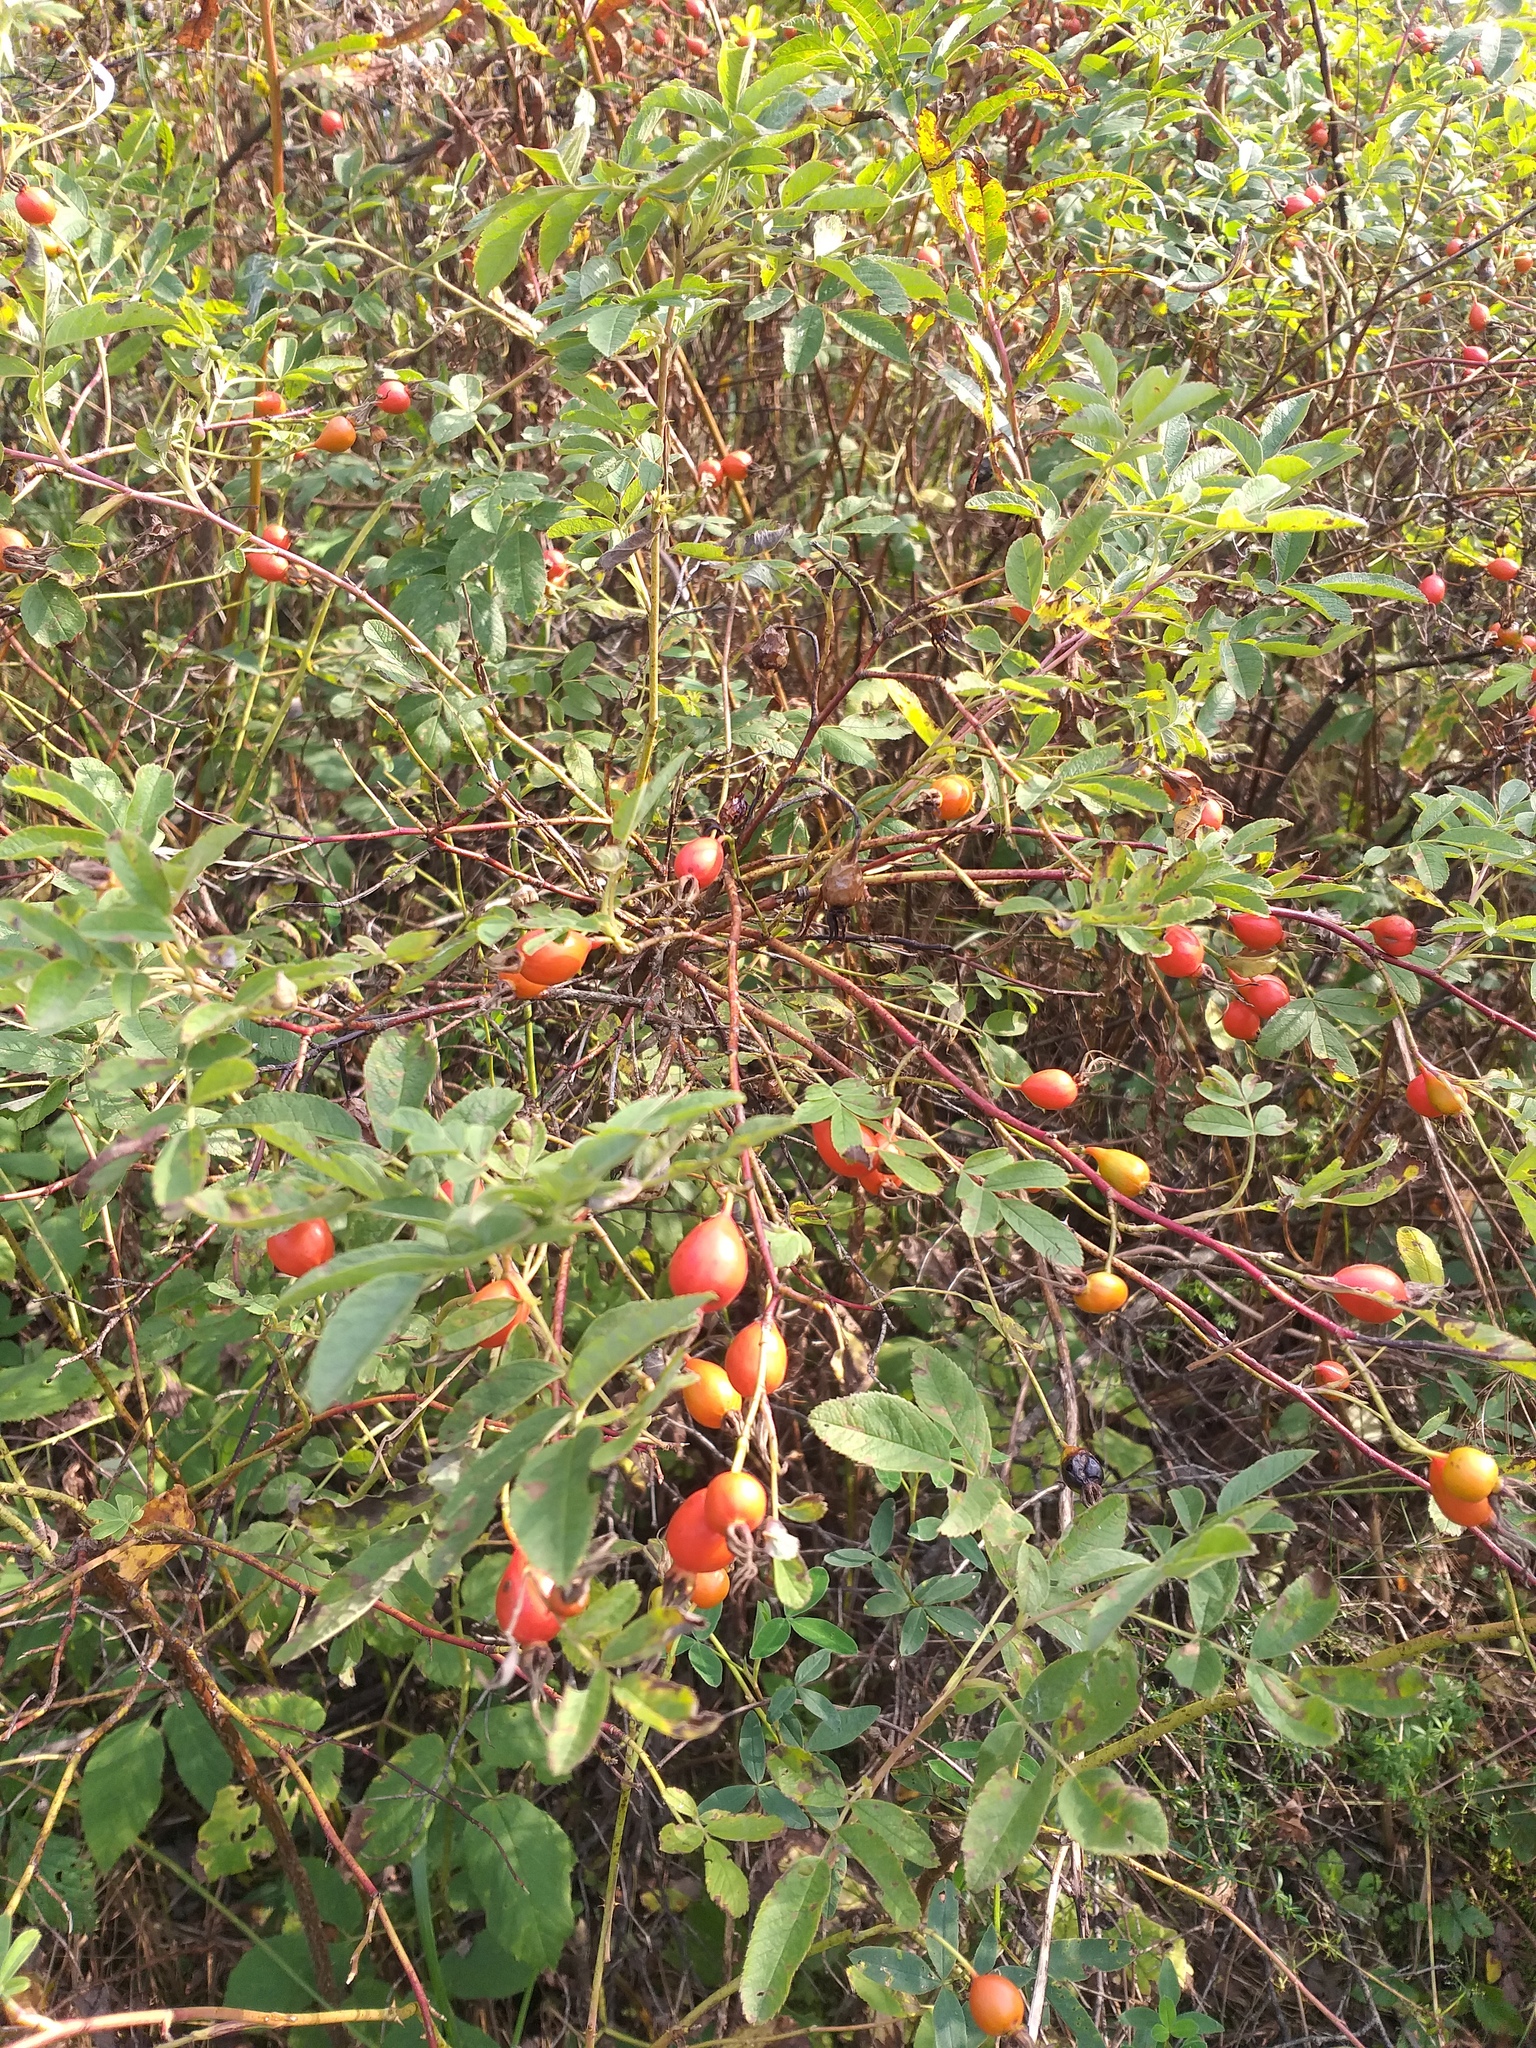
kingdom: Plantae
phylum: Tracheophyta
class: Magnoliopsida
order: Rosales
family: Rosaceae
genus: Rosa
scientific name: Rosa majalis
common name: Cinnamon rose
